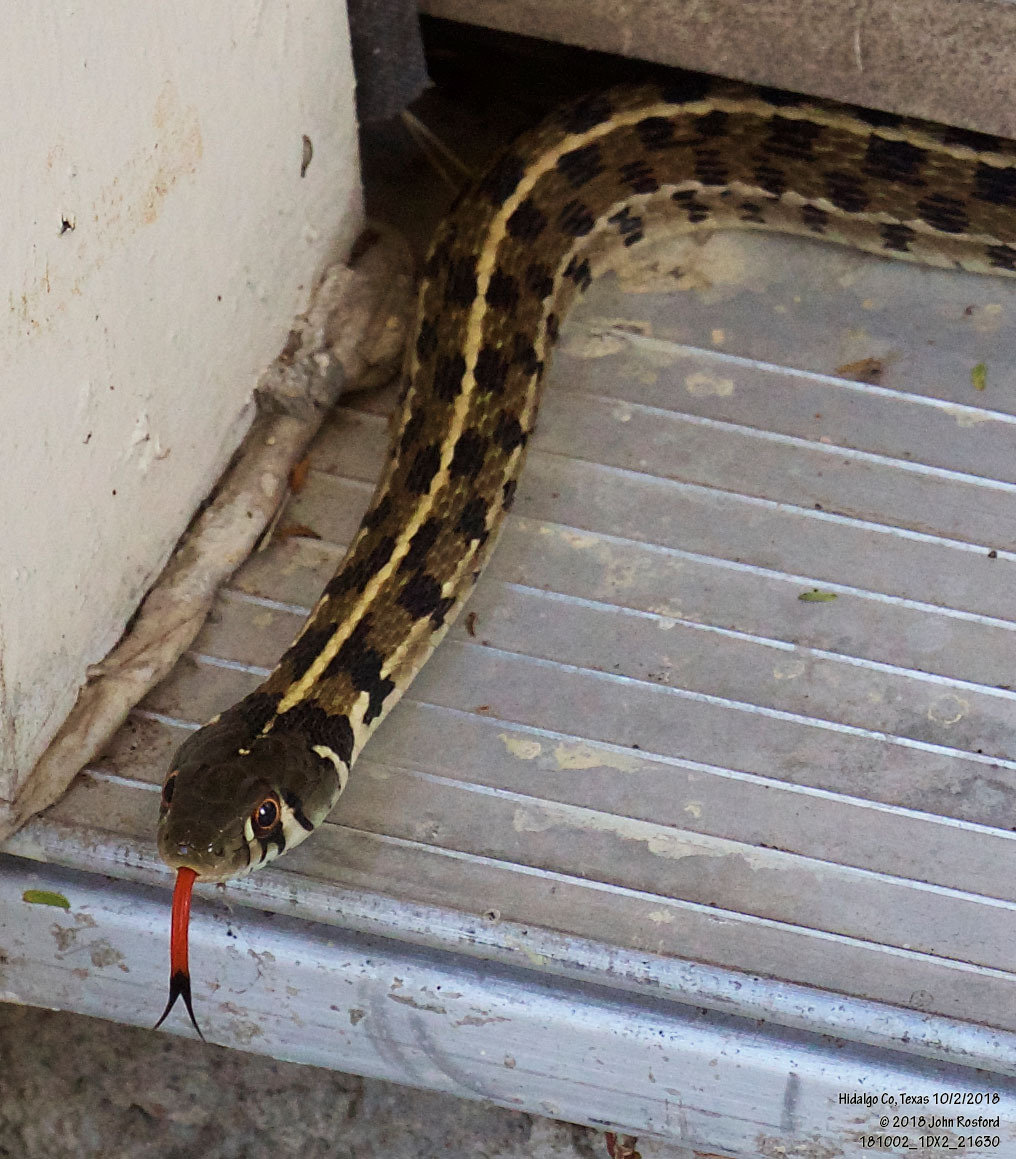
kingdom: Animalia
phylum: Chordata
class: Squamata
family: Colubridae
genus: Thamnophis
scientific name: Thamnophis marcianus
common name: Checkered garter snake
